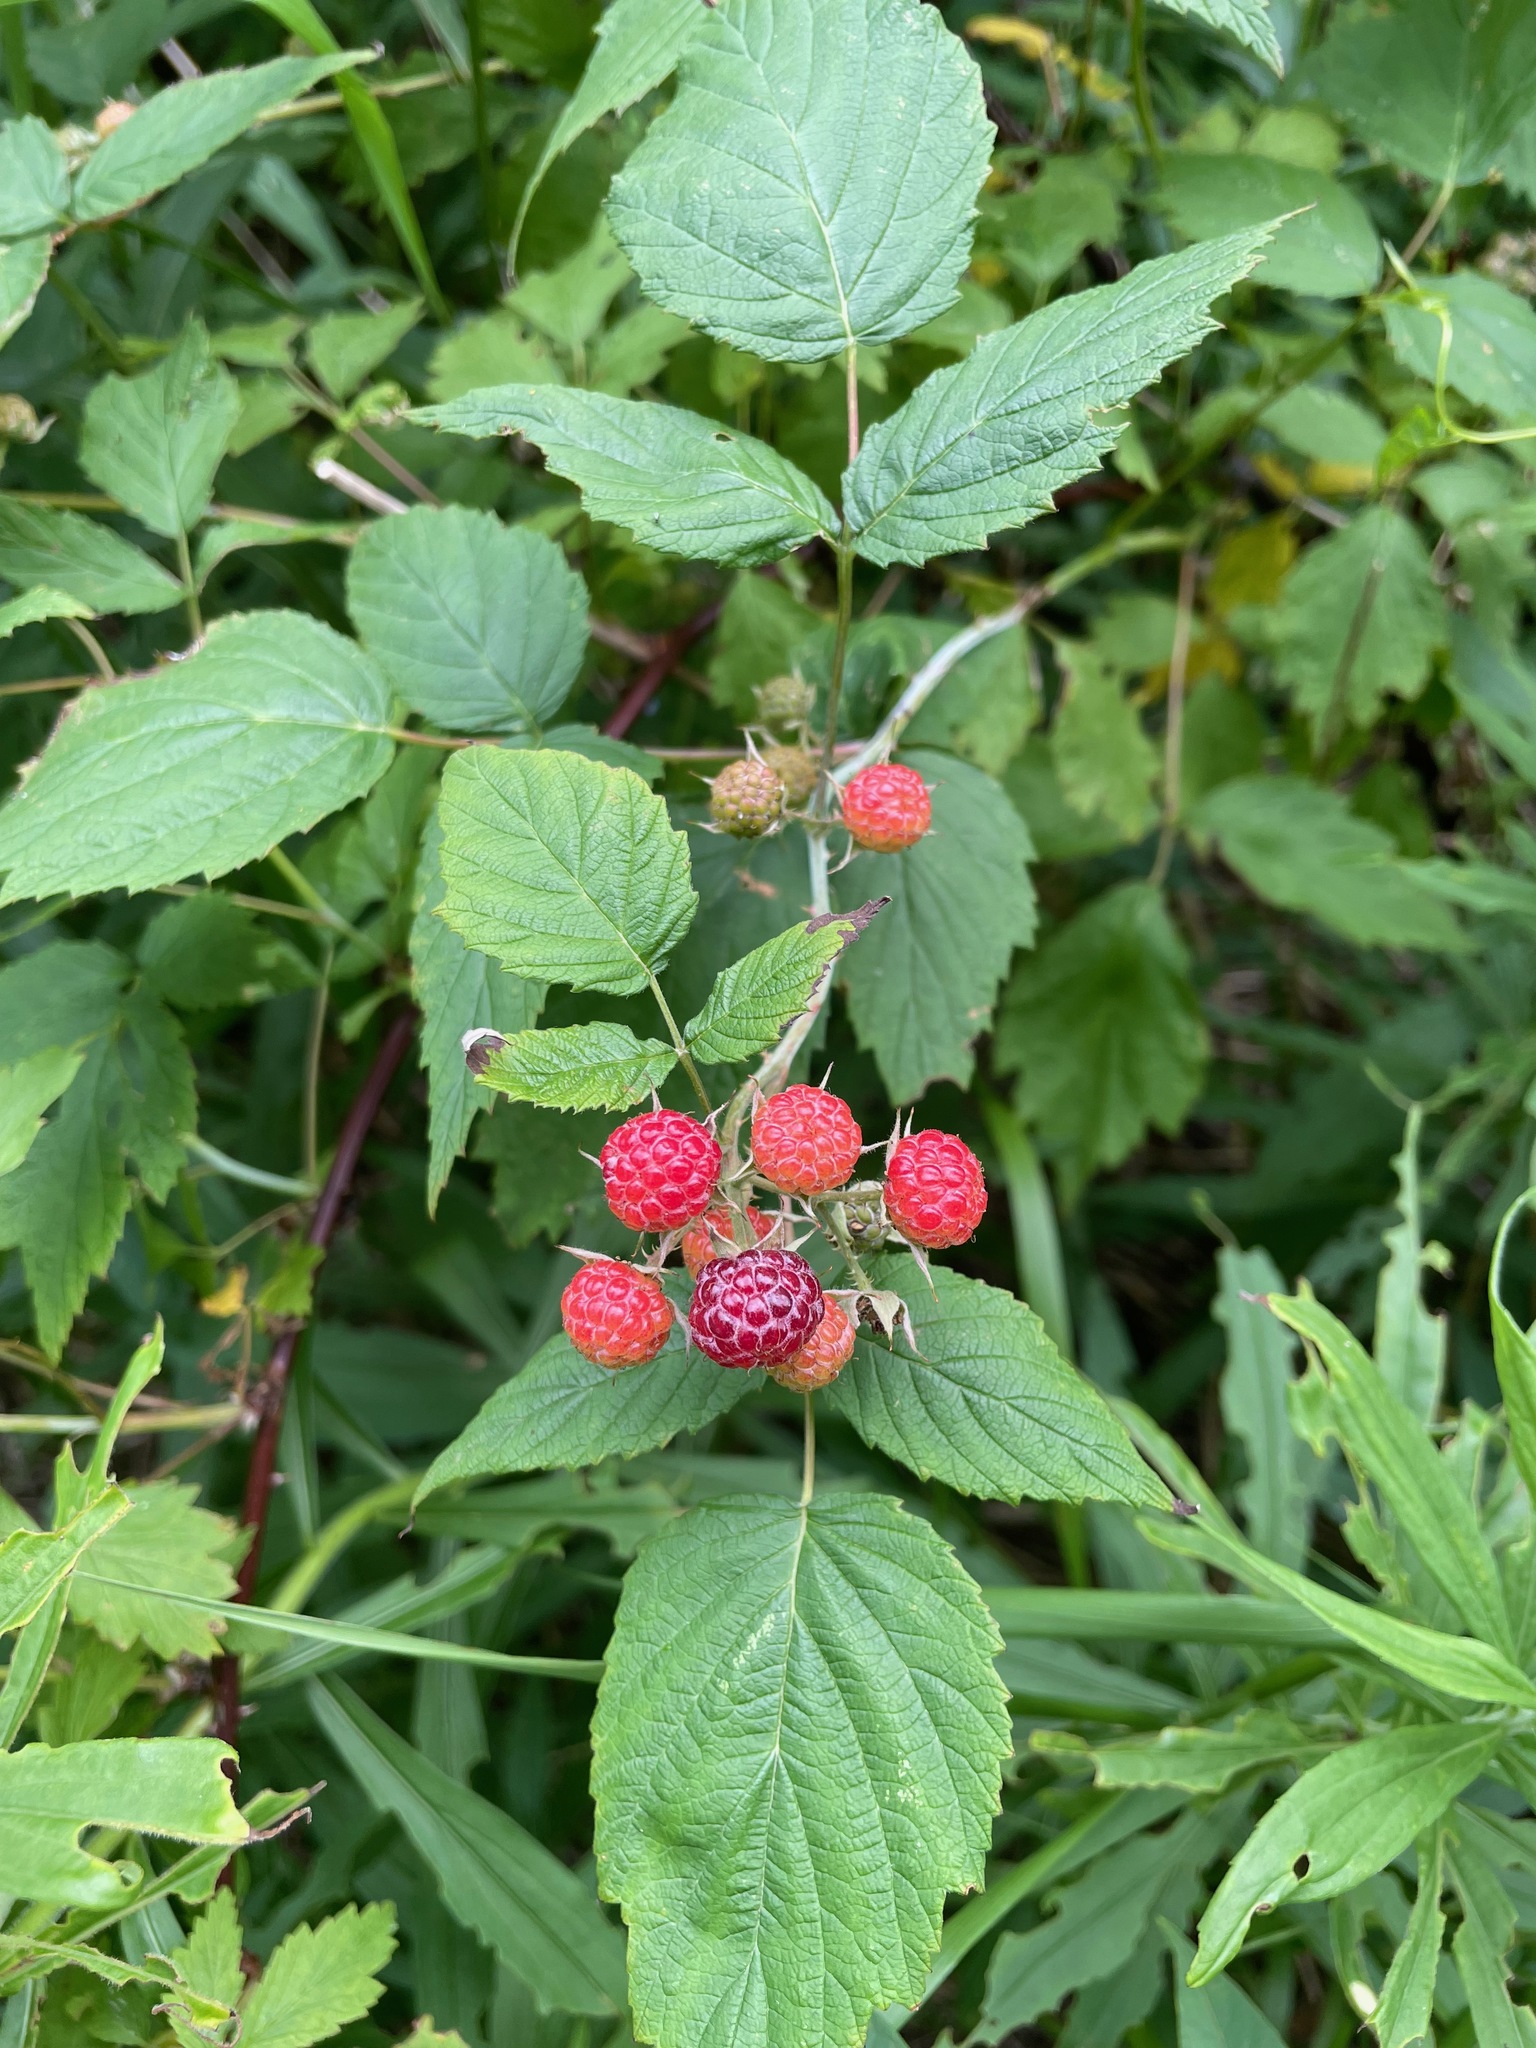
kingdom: Plantae
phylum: Tracheophyta
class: Magnoliopsida
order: Rosales
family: Rosaceae
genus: Rubus
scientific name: Rubus occidentalis
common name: Black raspberry
